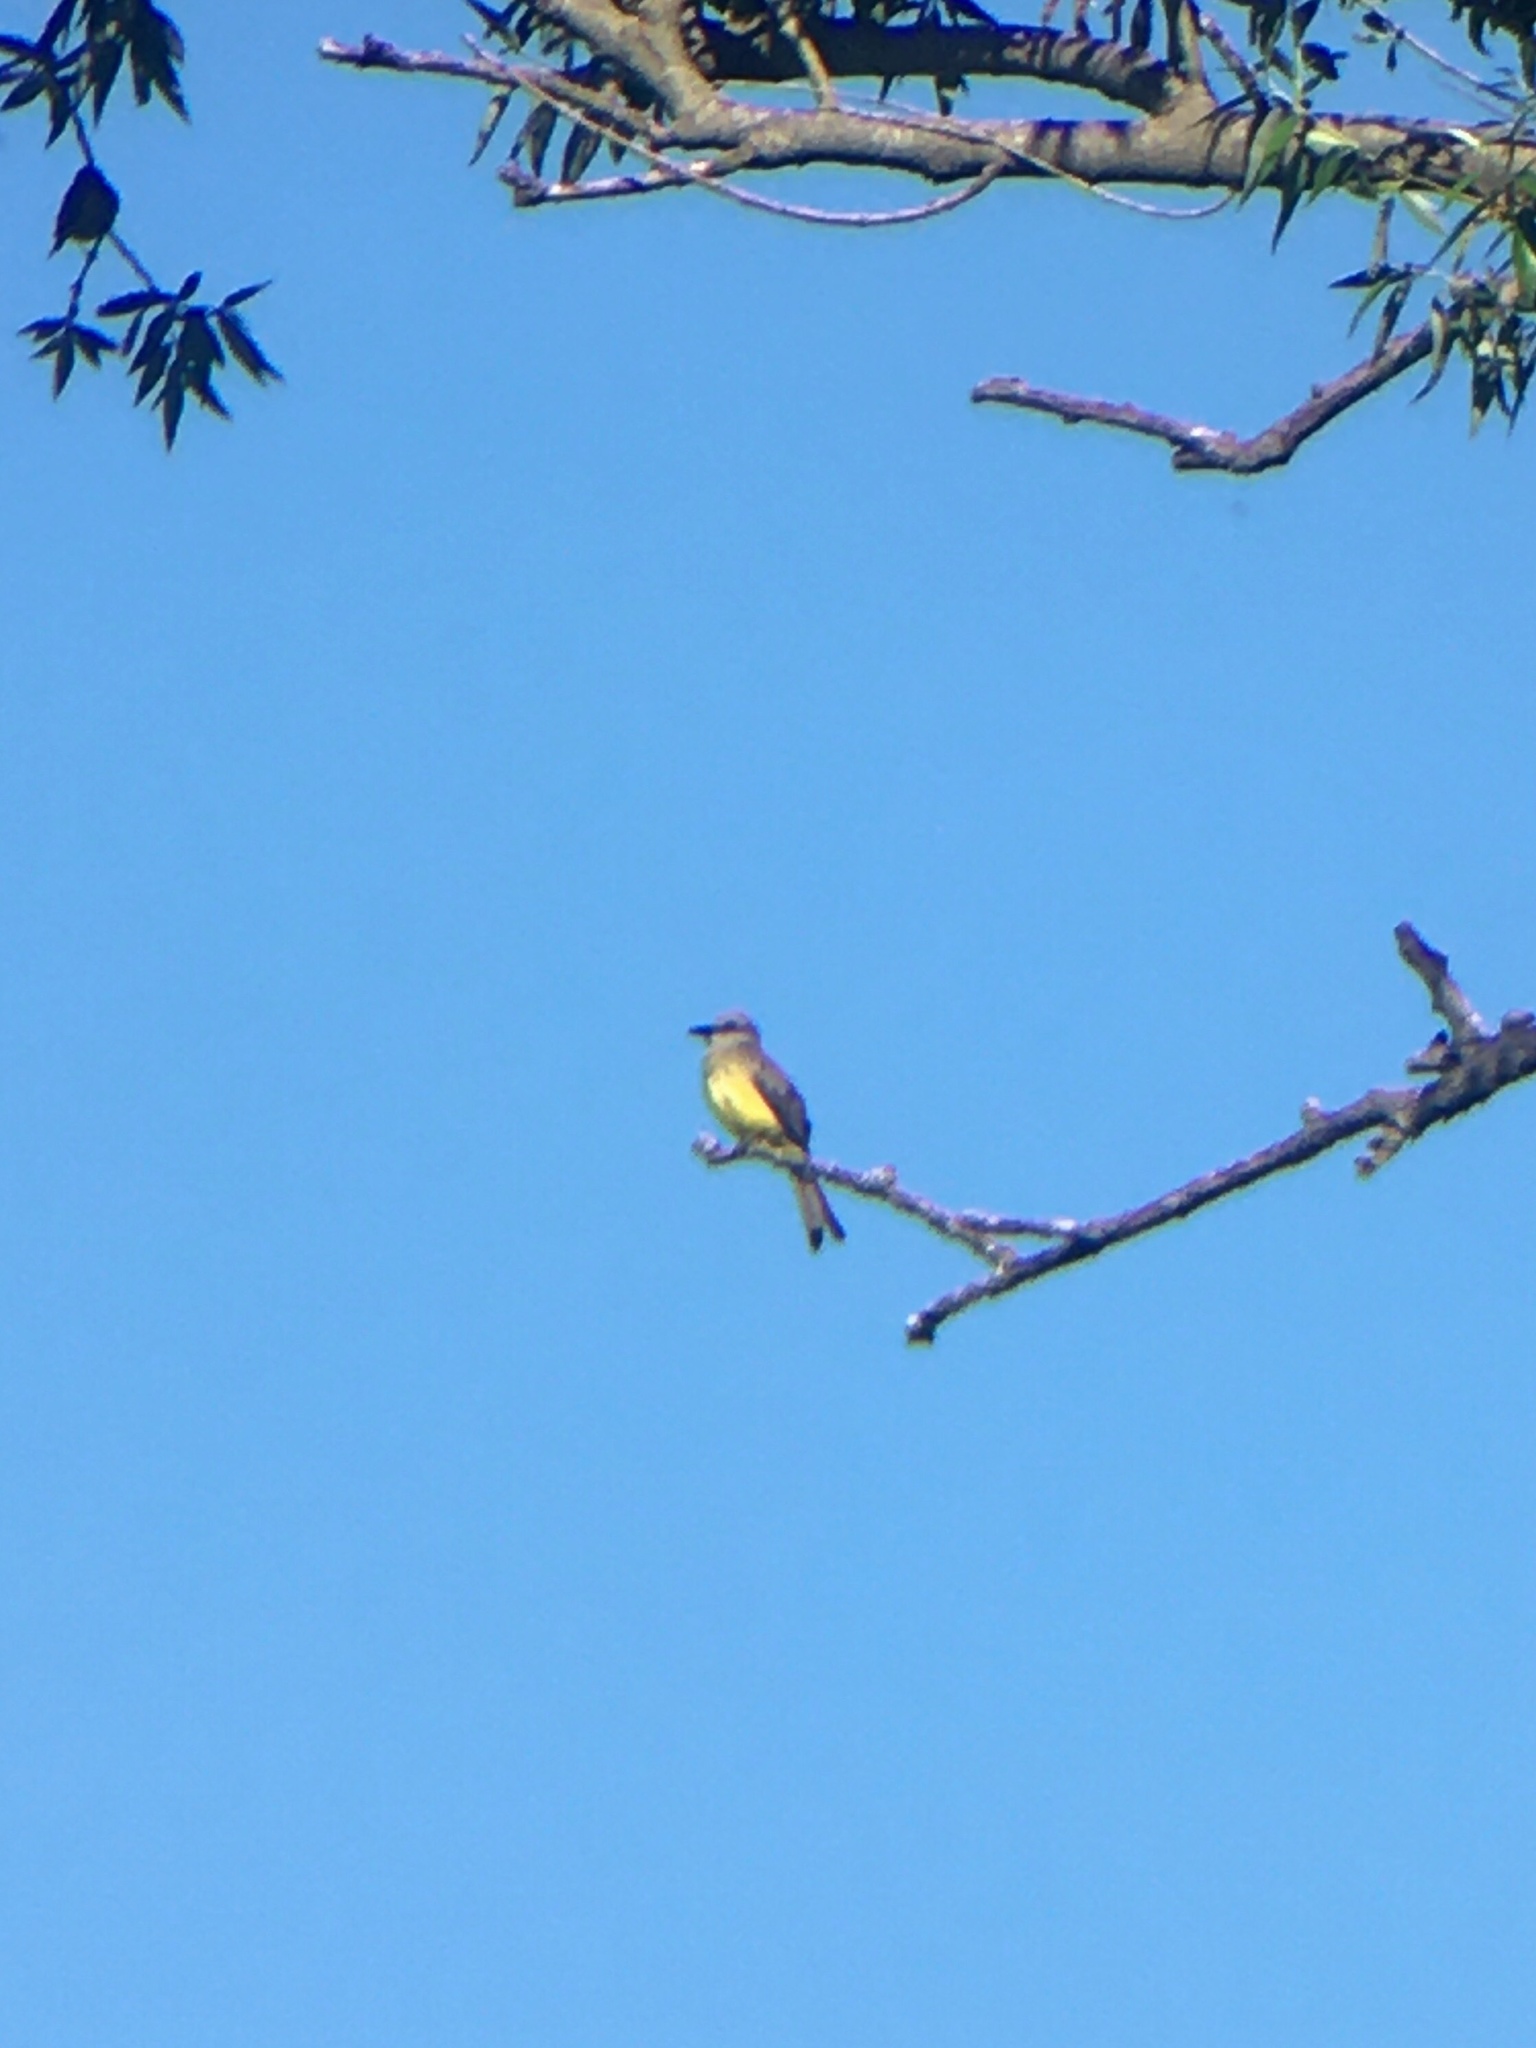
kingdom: Animalia
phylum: Chordata
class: Aves
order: Passeriformes
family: Tyrannidae
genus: Tyrannus
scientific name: Tyrannus melancholicus
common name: Tropical kingbird
